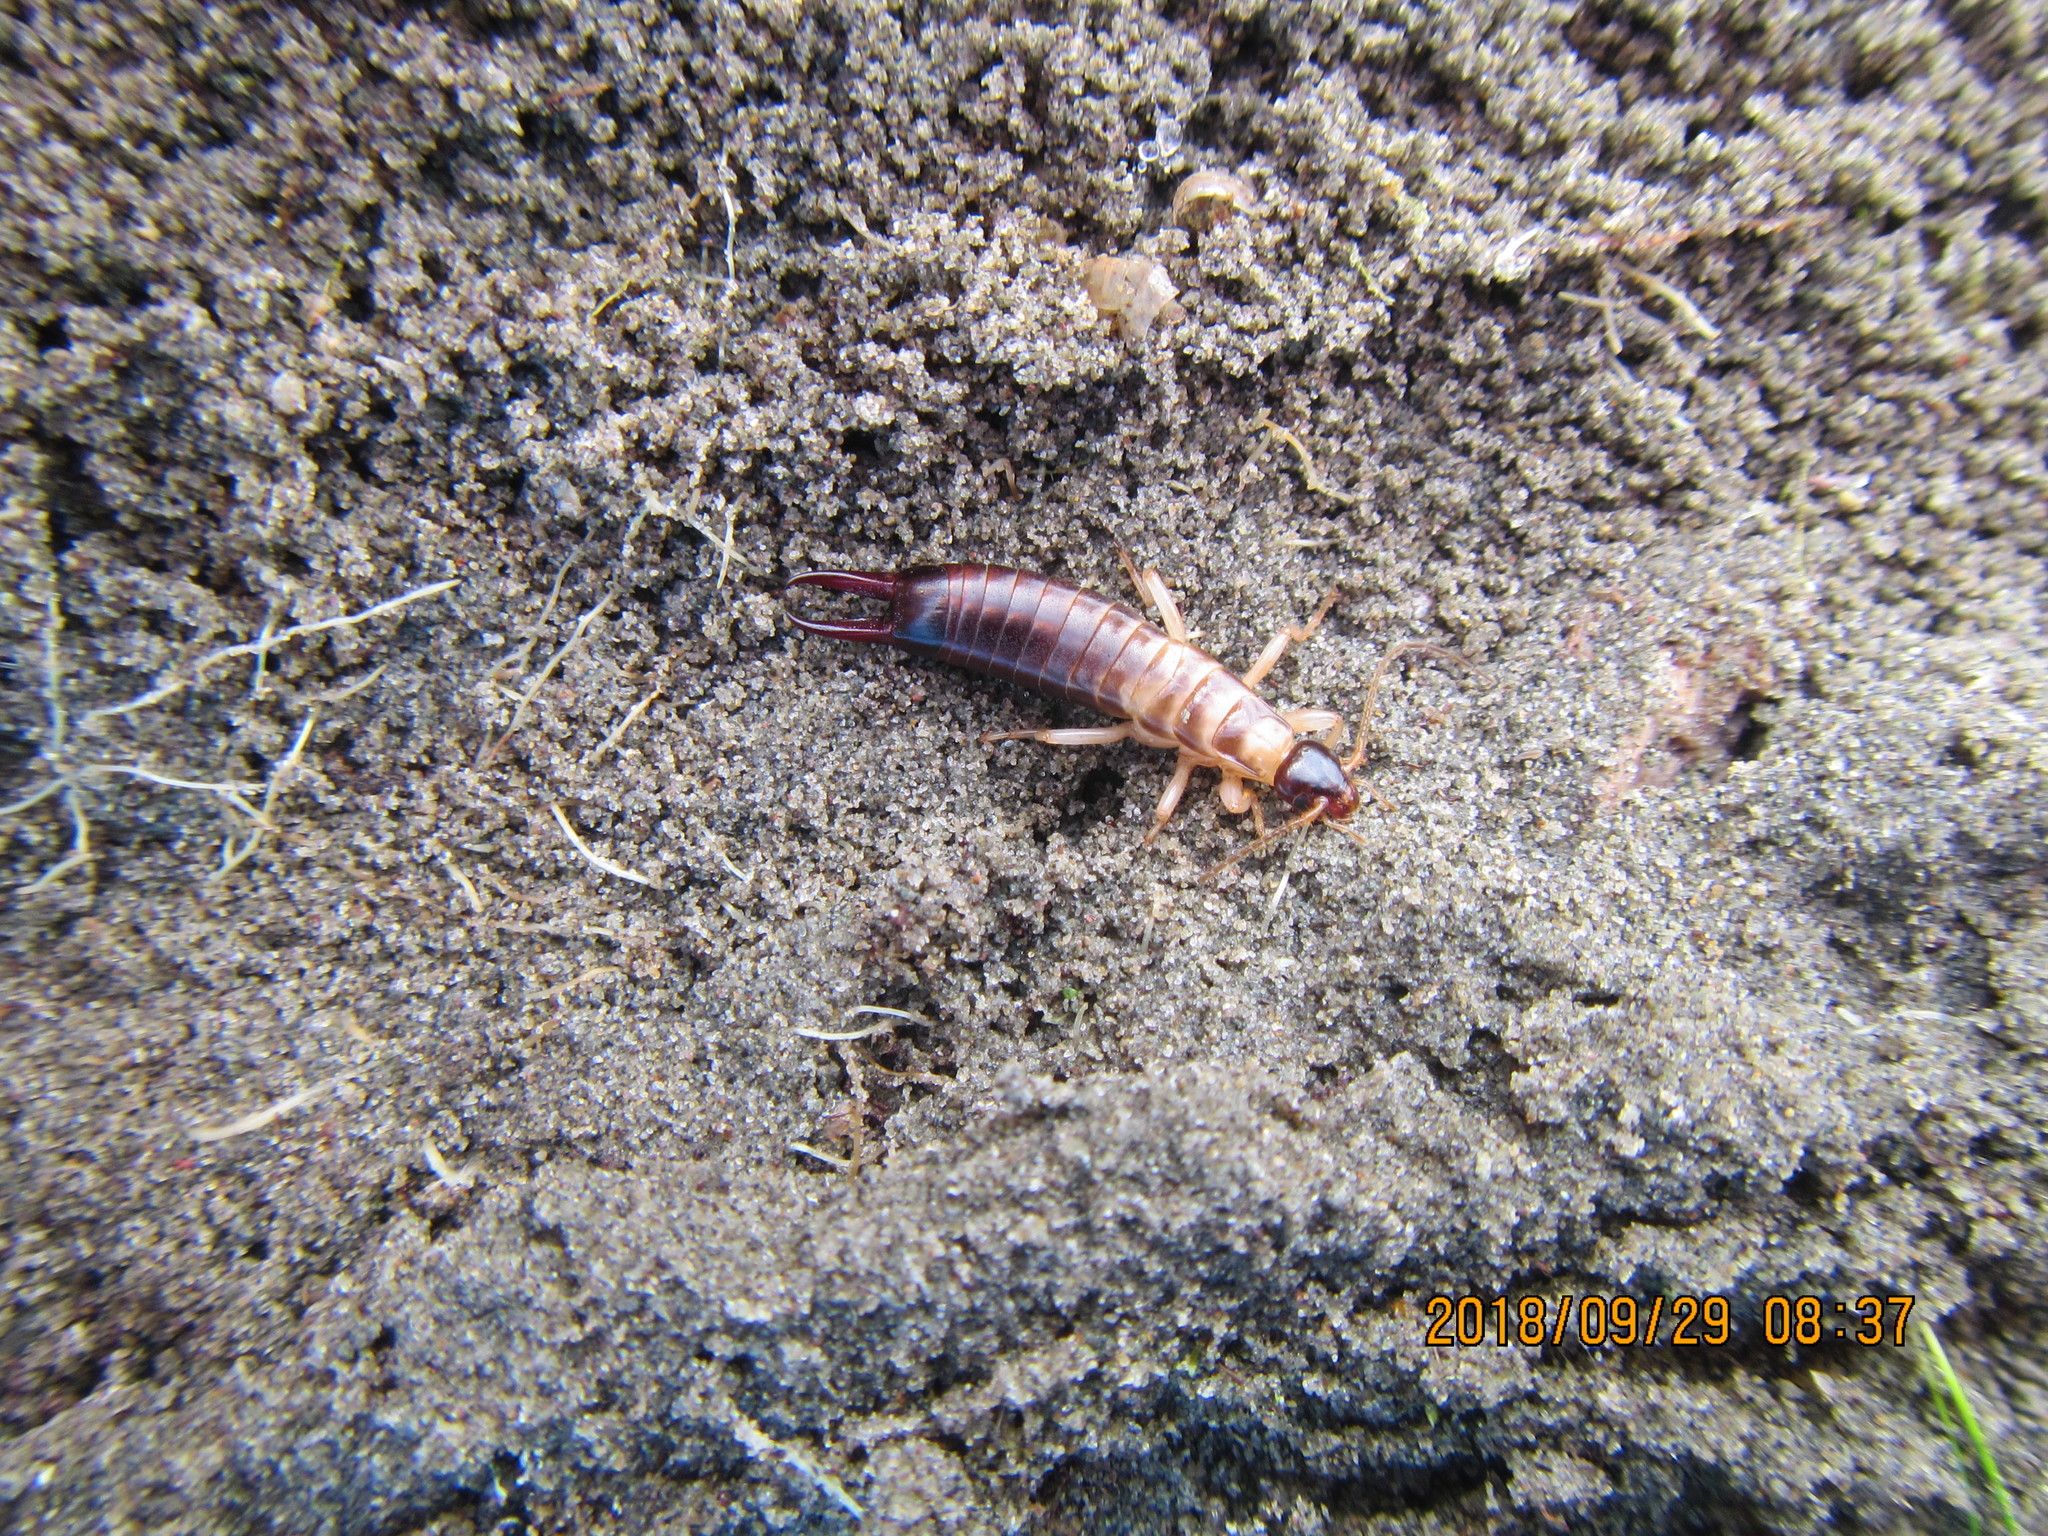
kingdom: Animalia
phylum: Arthropoda
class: Insecta
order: Dermaptera
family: Anisolabididae
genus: Anisolabis
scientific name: Anisolabis littorea
